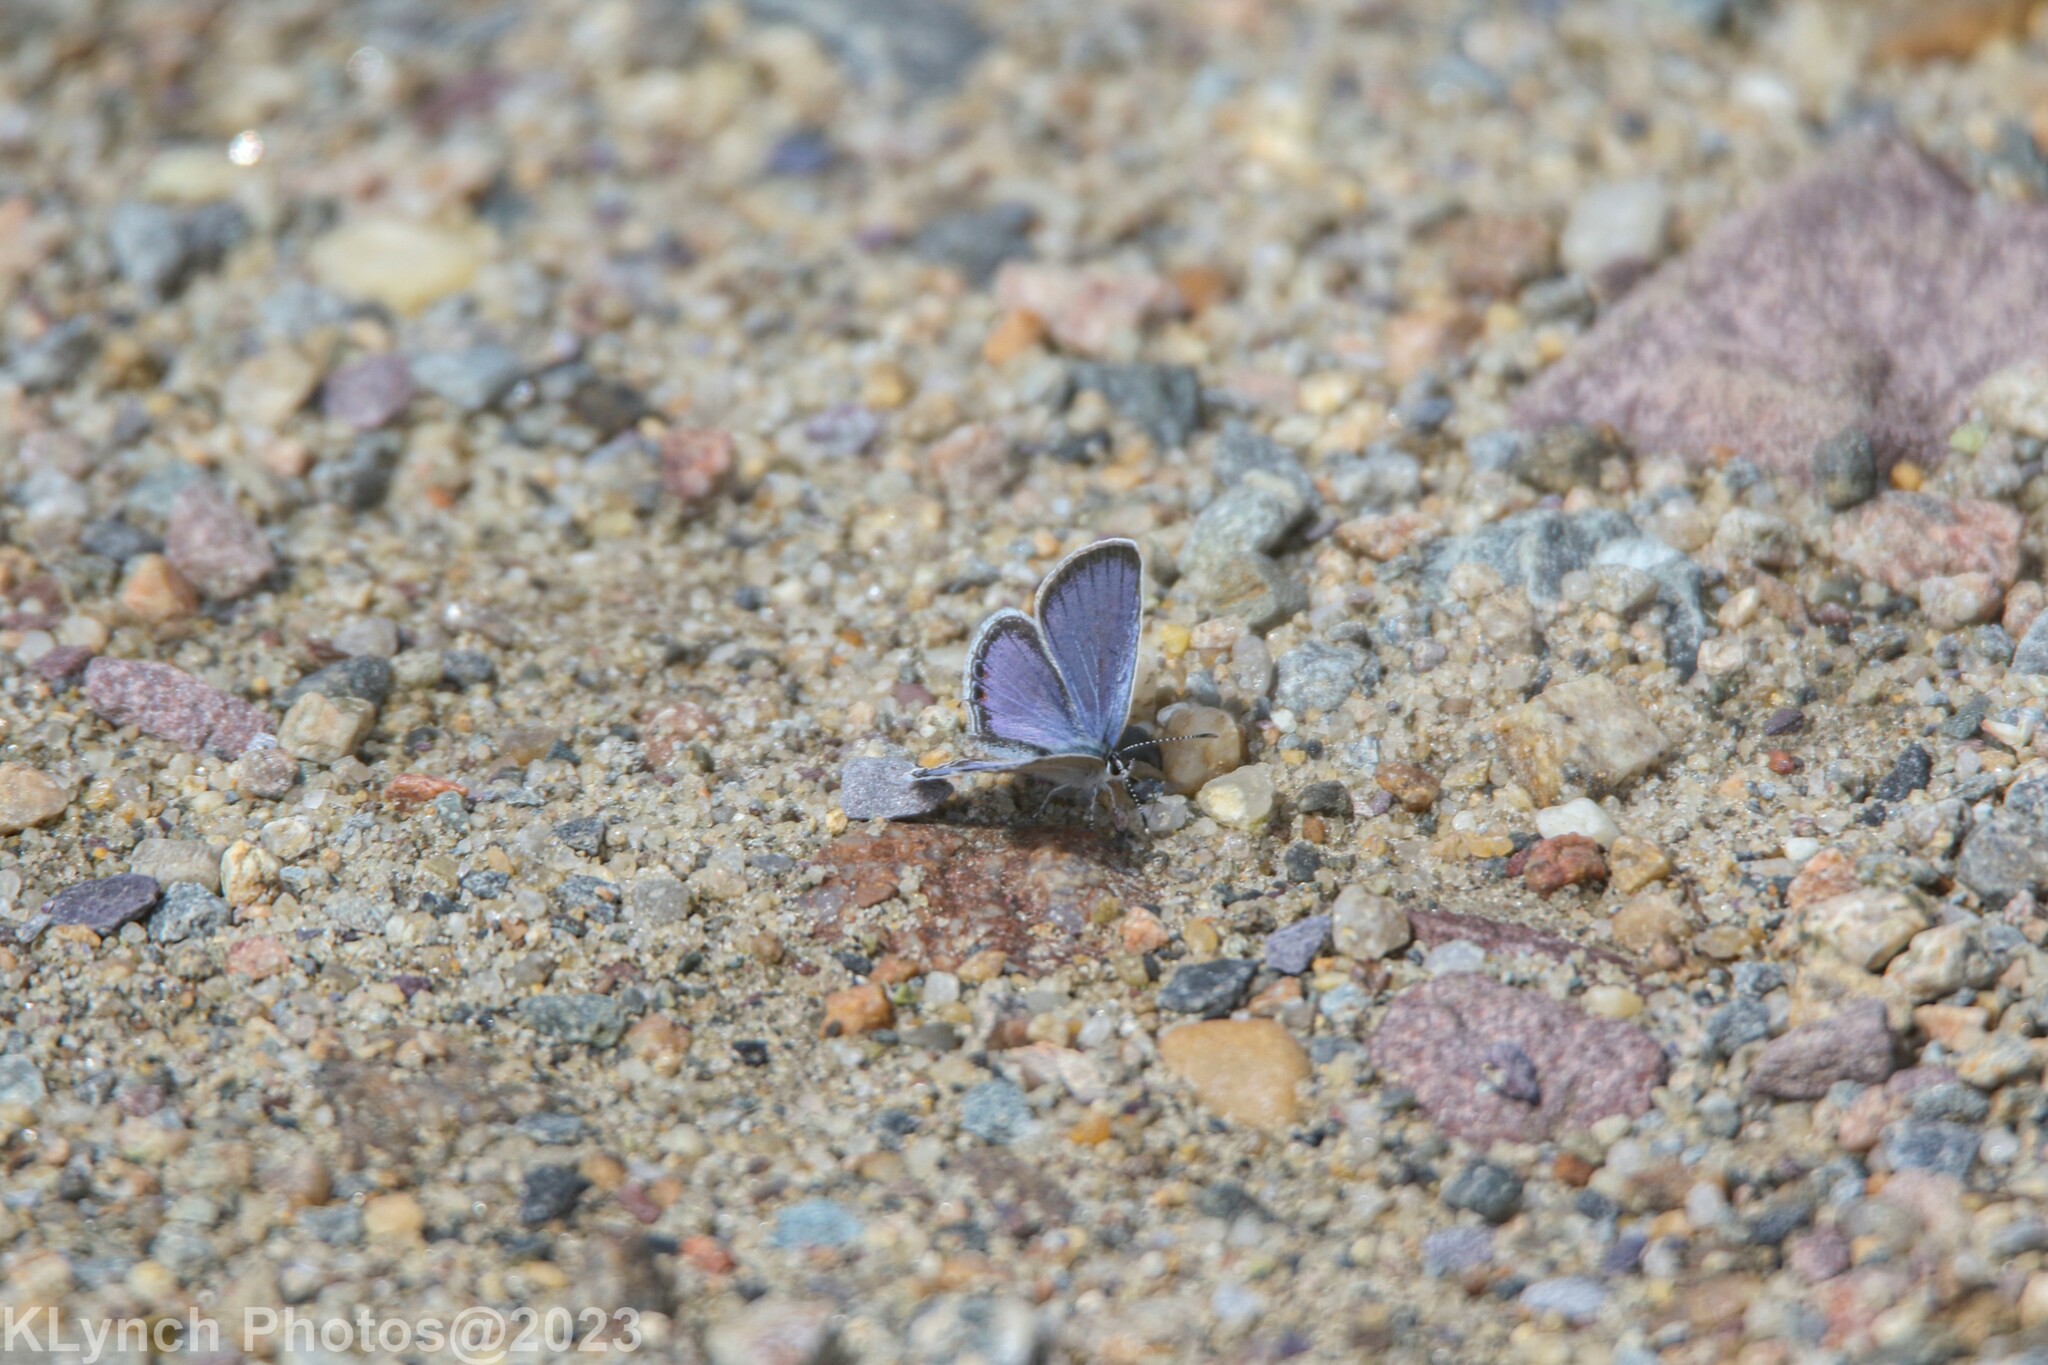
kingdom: Animalia
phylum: Arthropoda
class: Insecta
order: Lepidoptera
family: Lycaenidae
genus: Elkalyce
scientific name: Elkalyce comyntas
